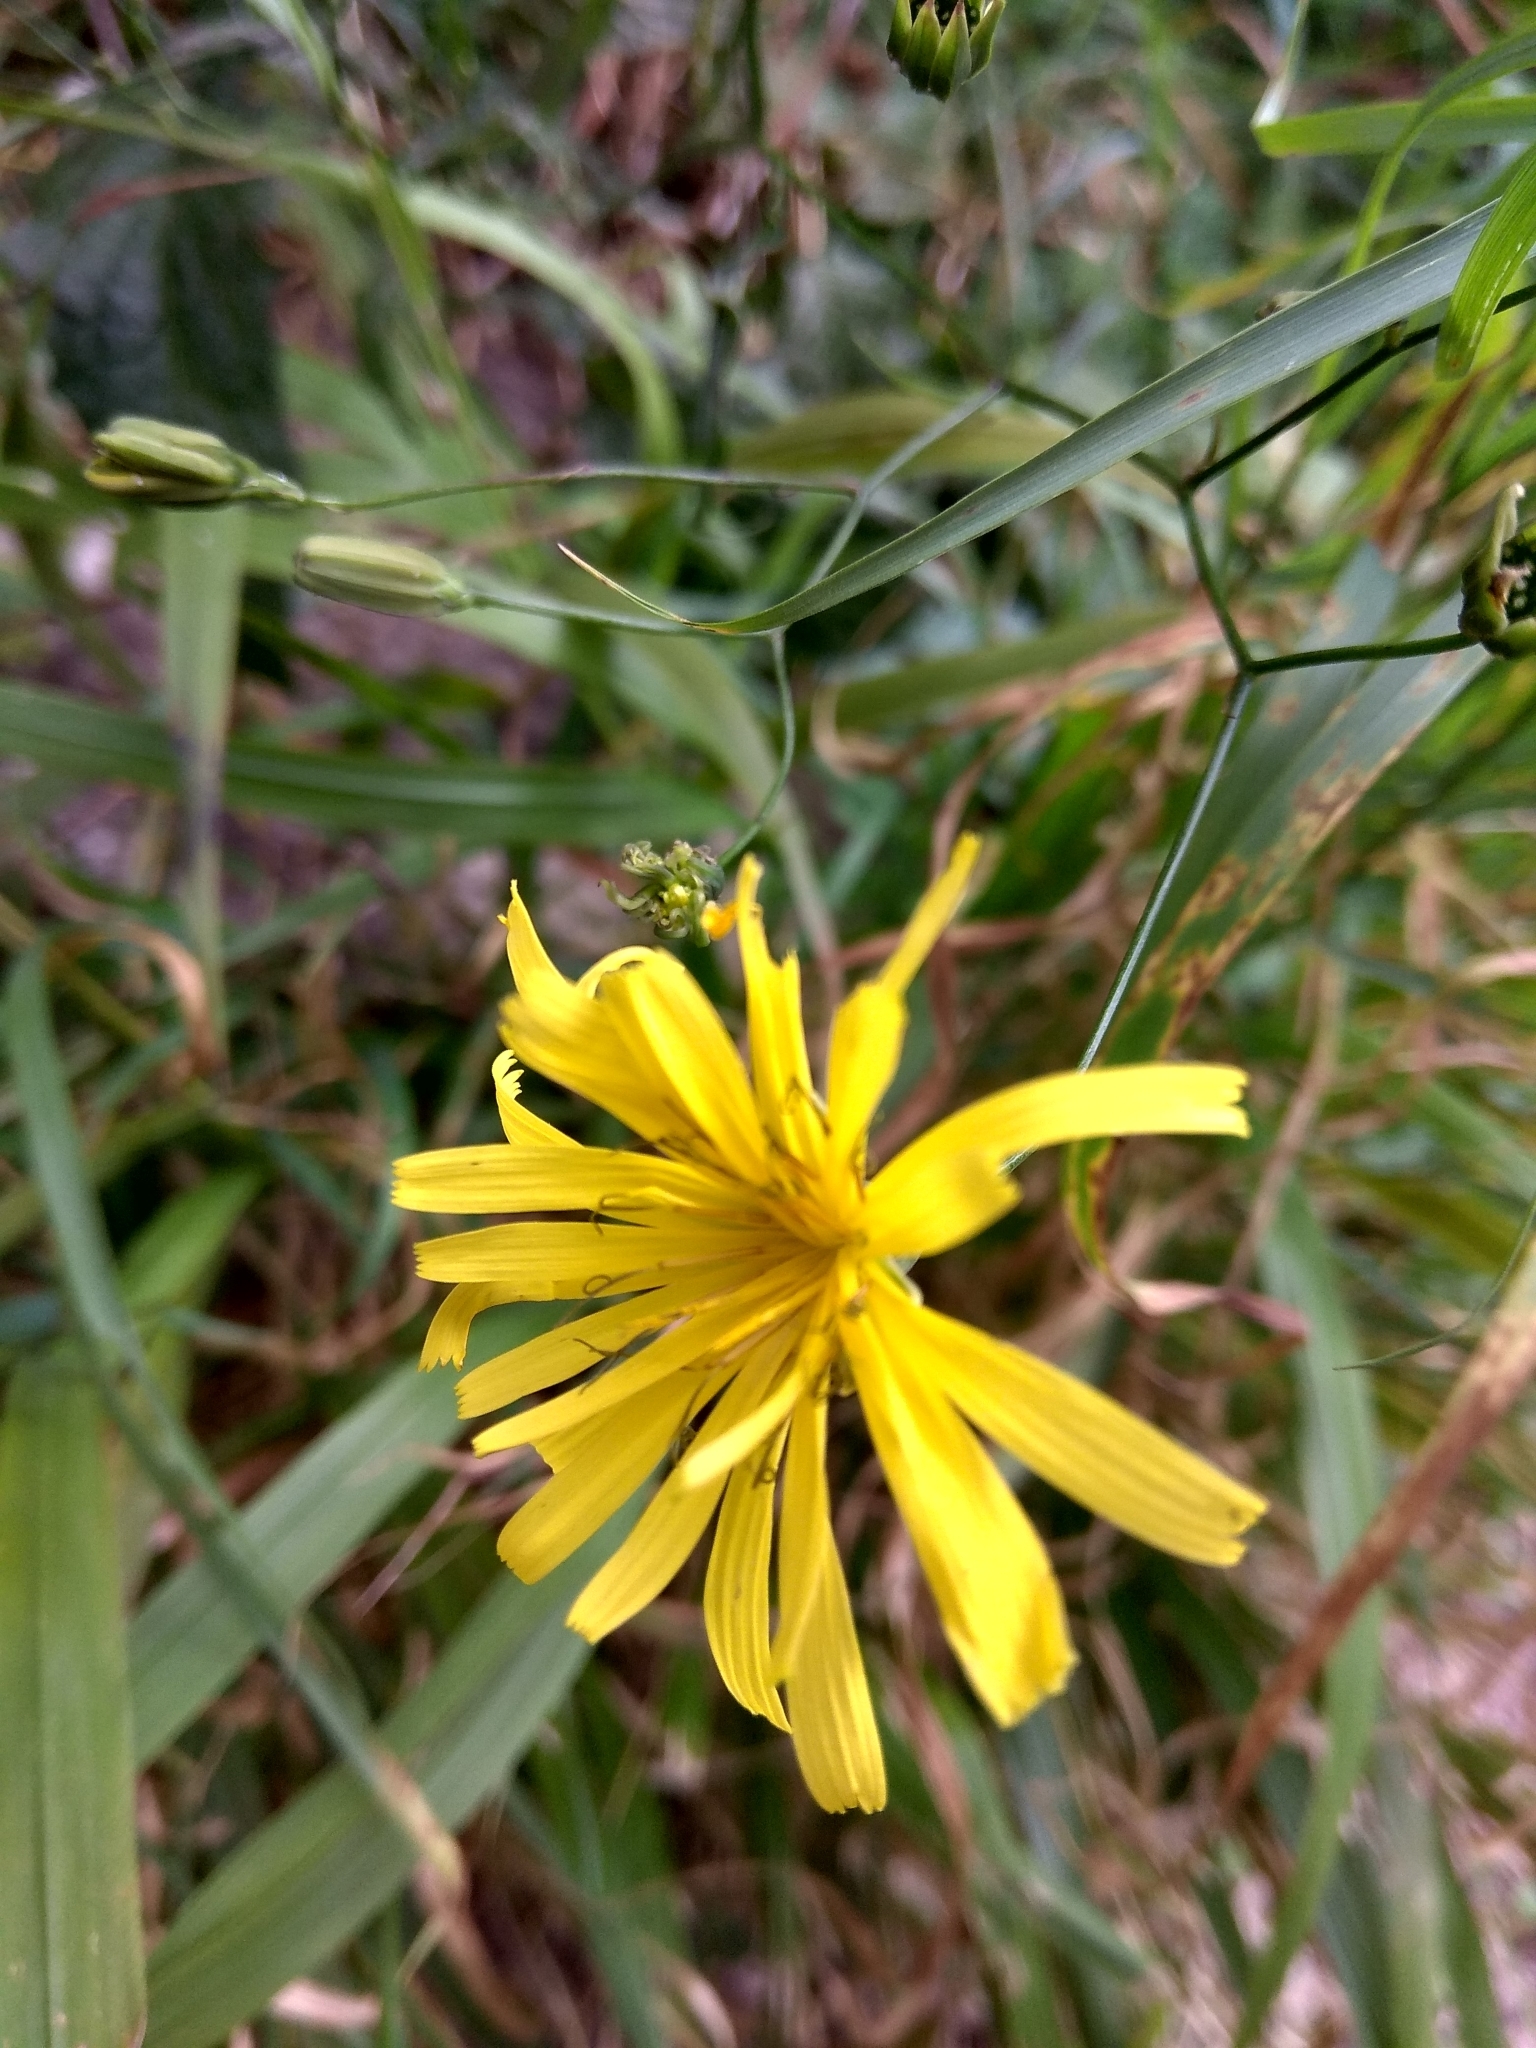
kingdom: Plantae
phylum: Tracheophyta
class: Magnoliopsida
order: Asterales
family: Asteraceae
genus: Lapsana
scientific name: Lapsana communis
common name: Nipplewort
